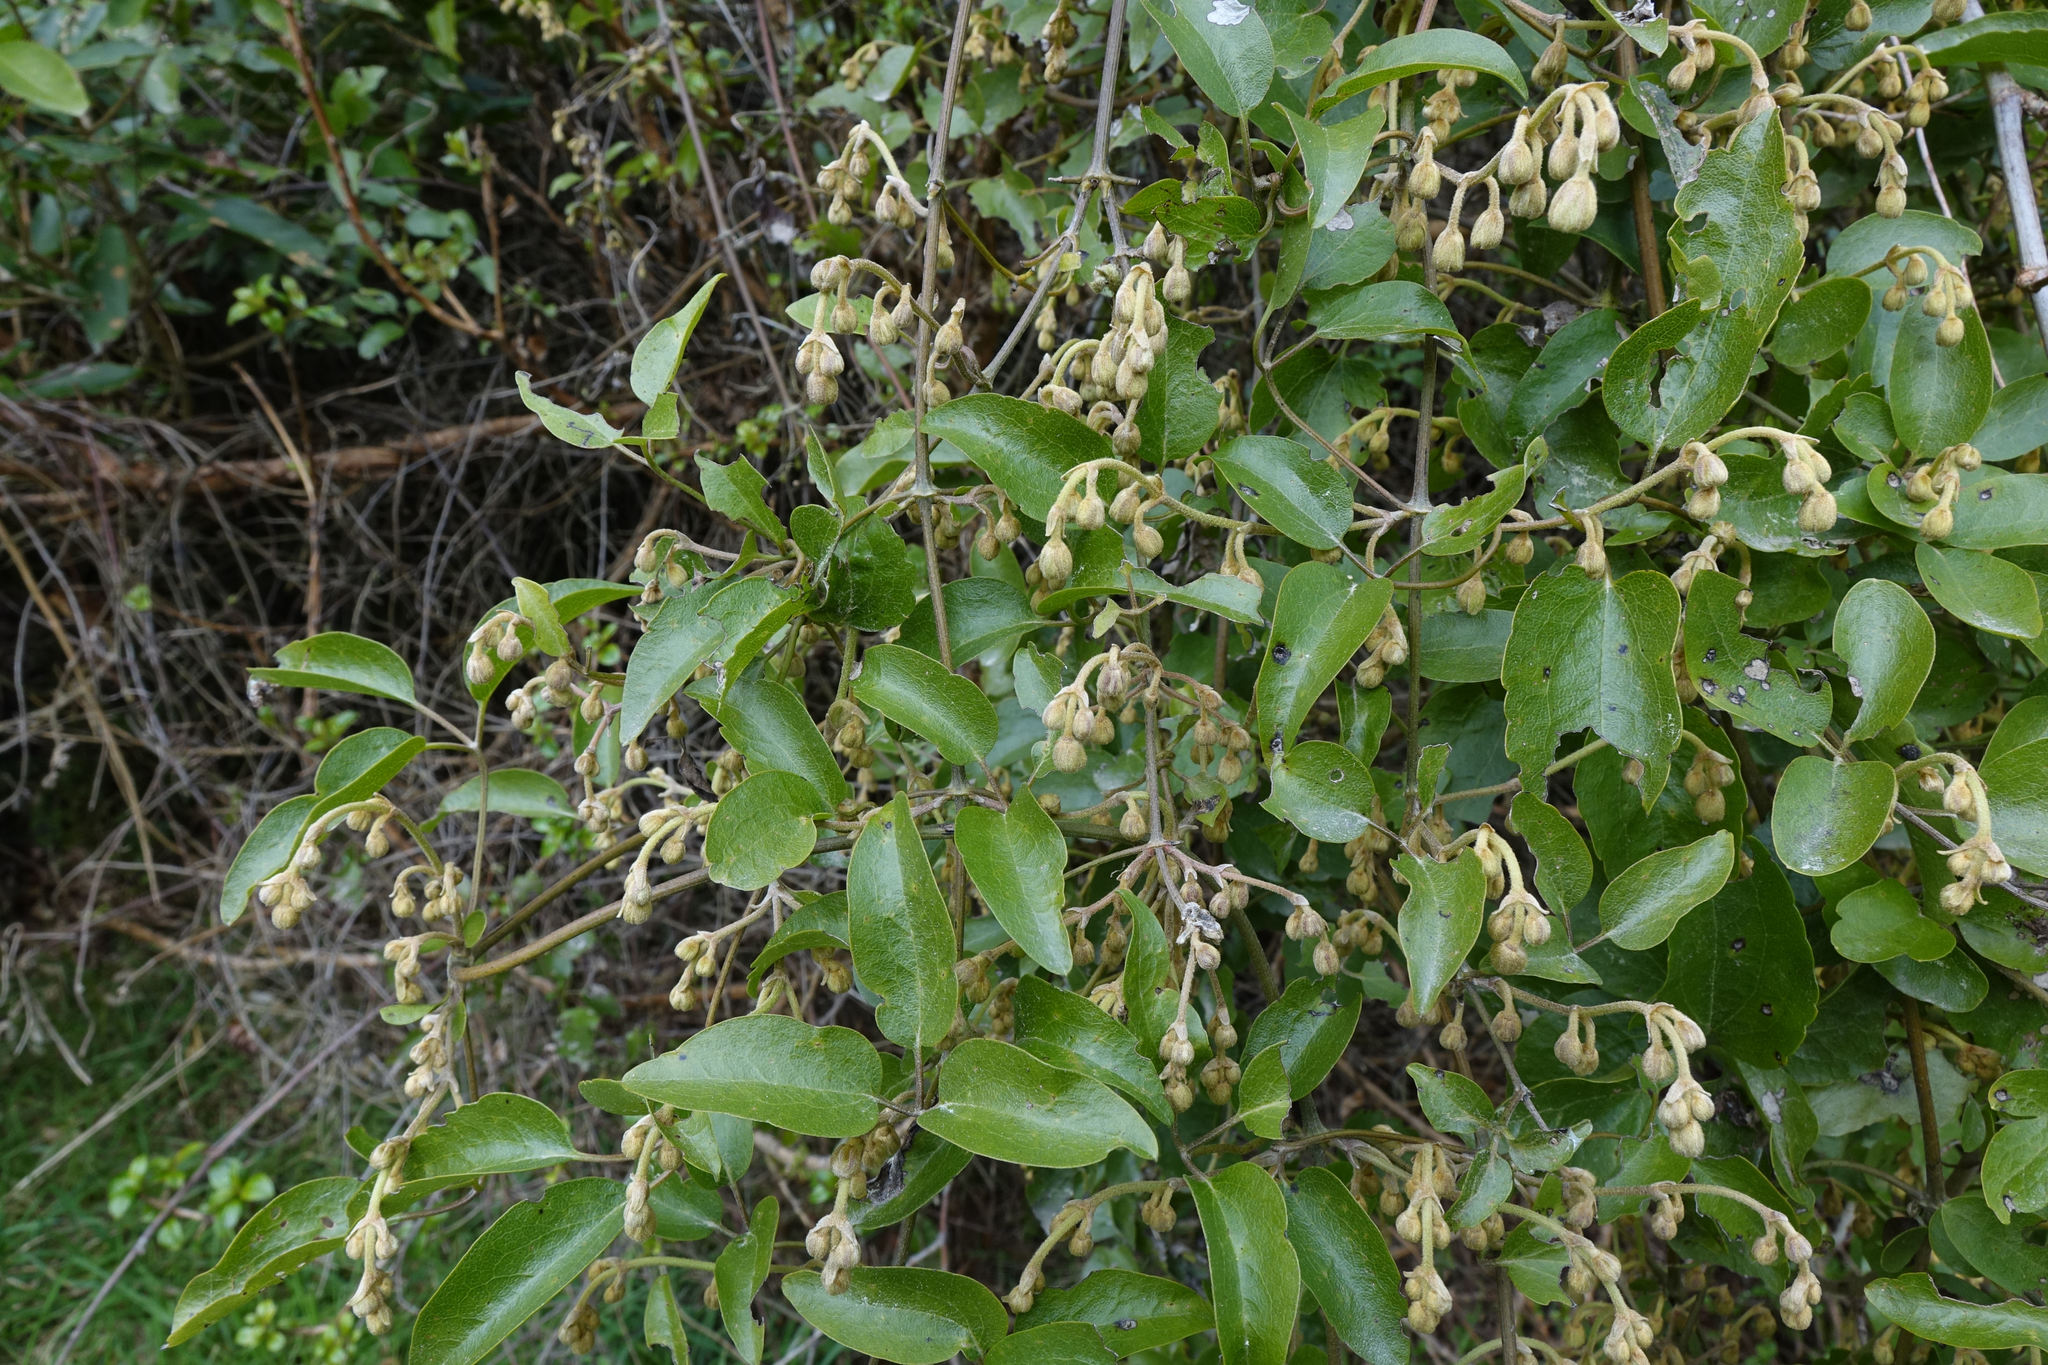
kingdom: Plantae
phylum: Tracheophyta
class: Magnoliopsida
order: Ranunculales
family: Ranunculaceae
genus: Clematis
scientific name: Clematis foetida
